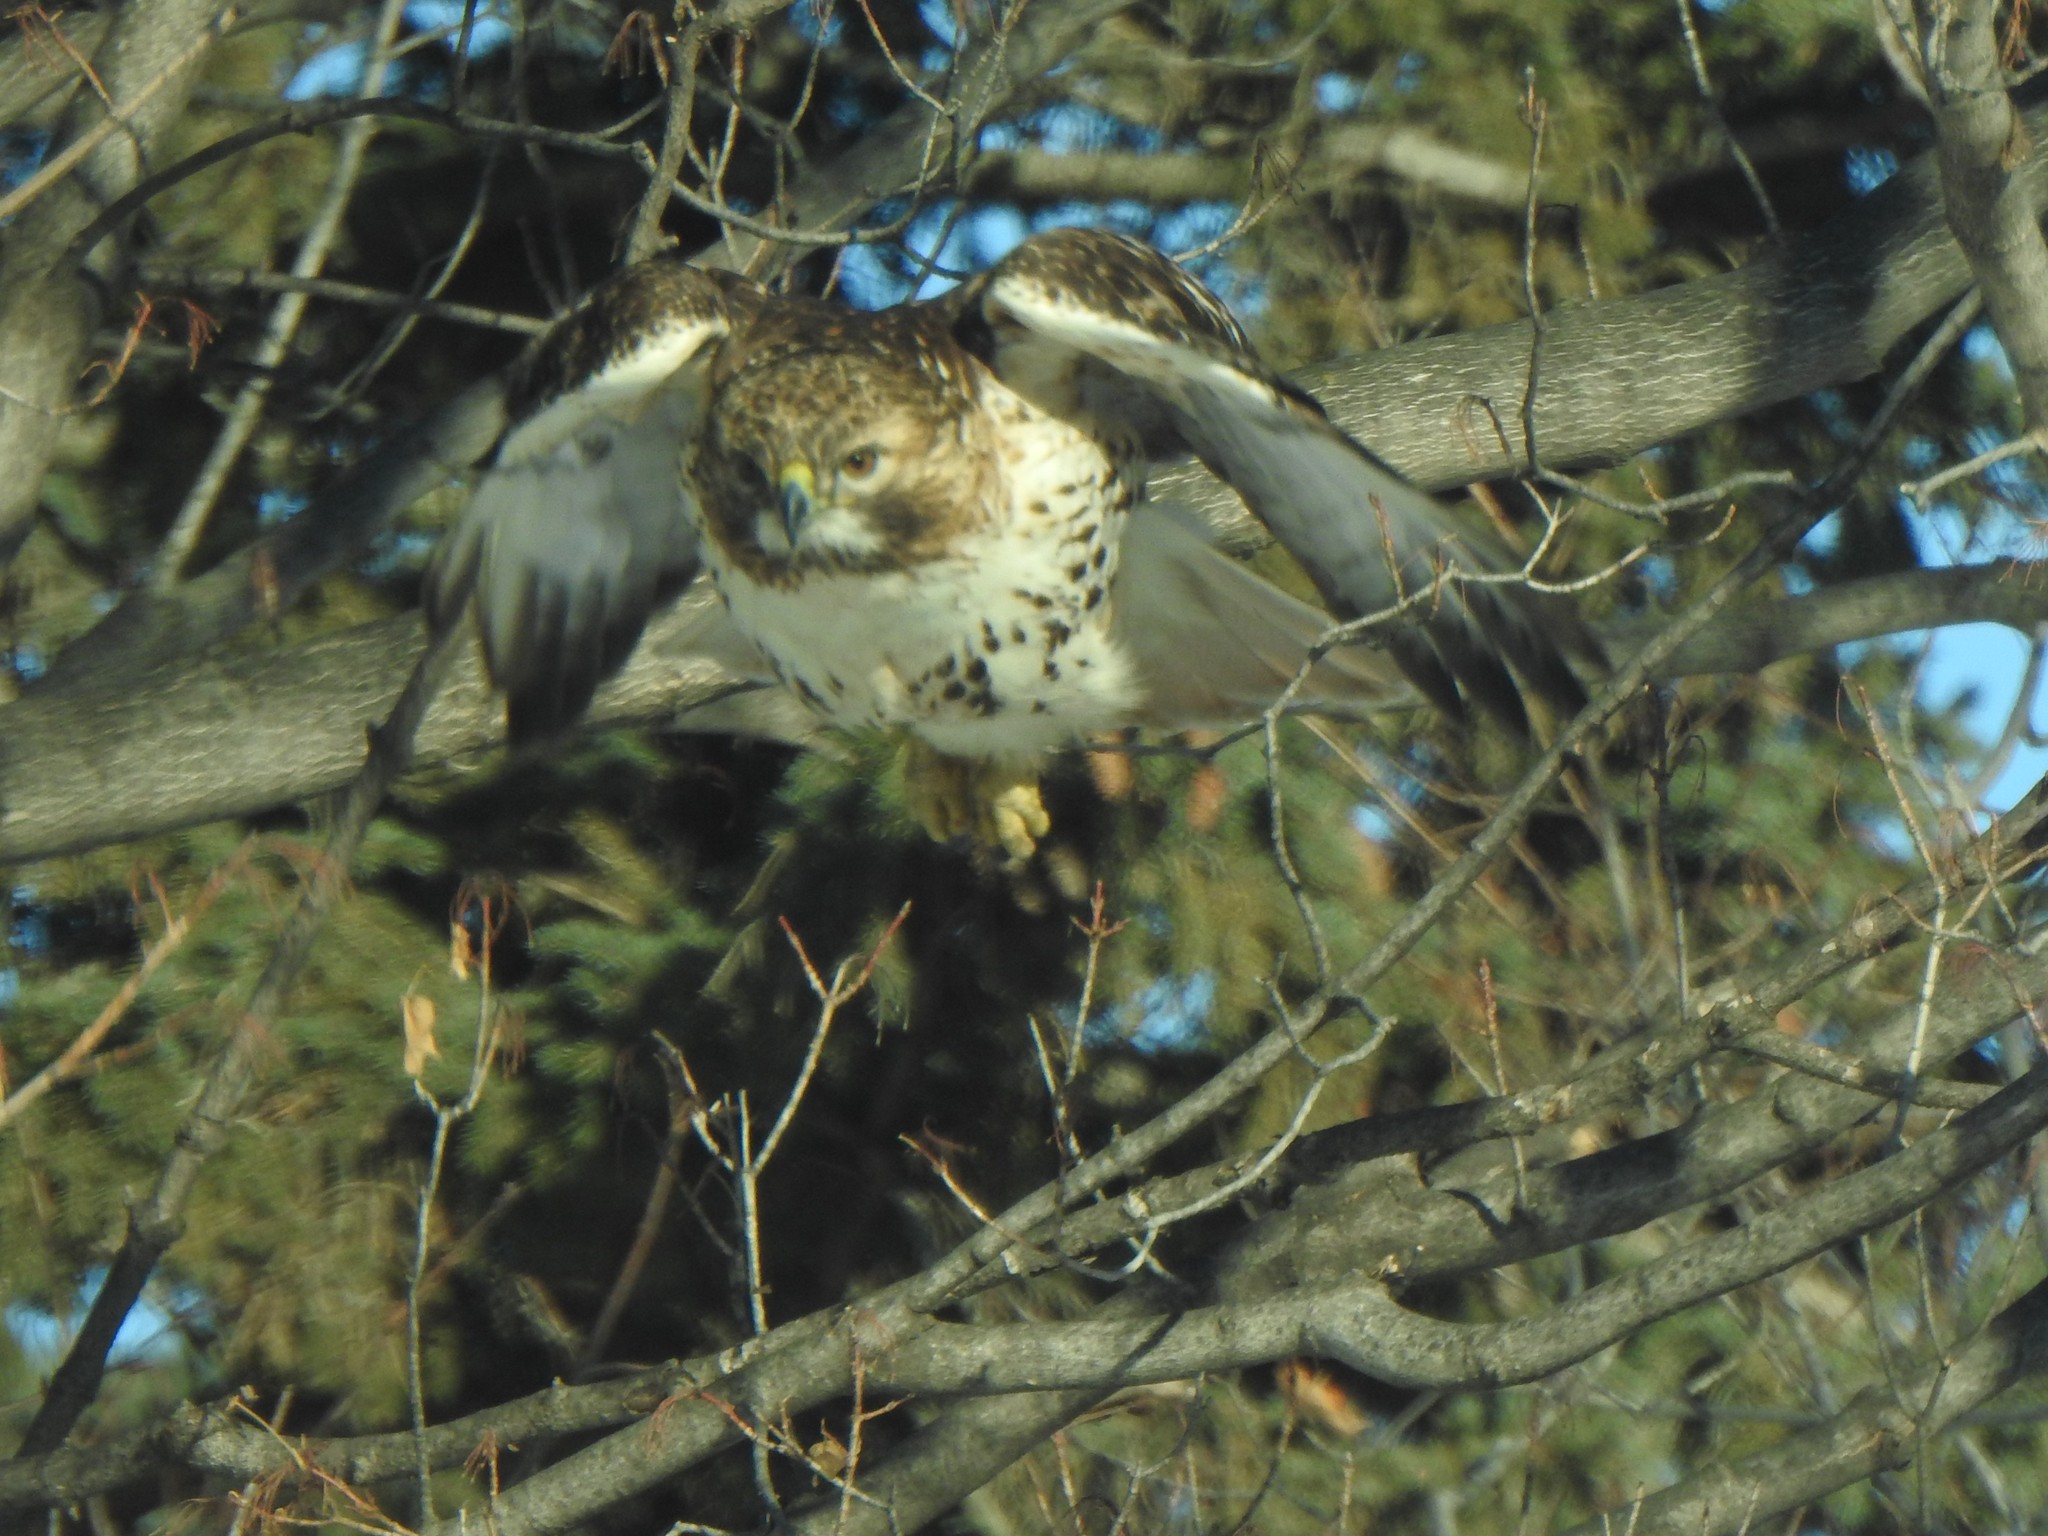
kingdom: Animalia
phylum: Chordata
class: Aves
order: Accipitriformes
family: Accipitridae
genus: Buteo
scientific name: Buteo jamaicensis
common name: Red-tailed hawk
